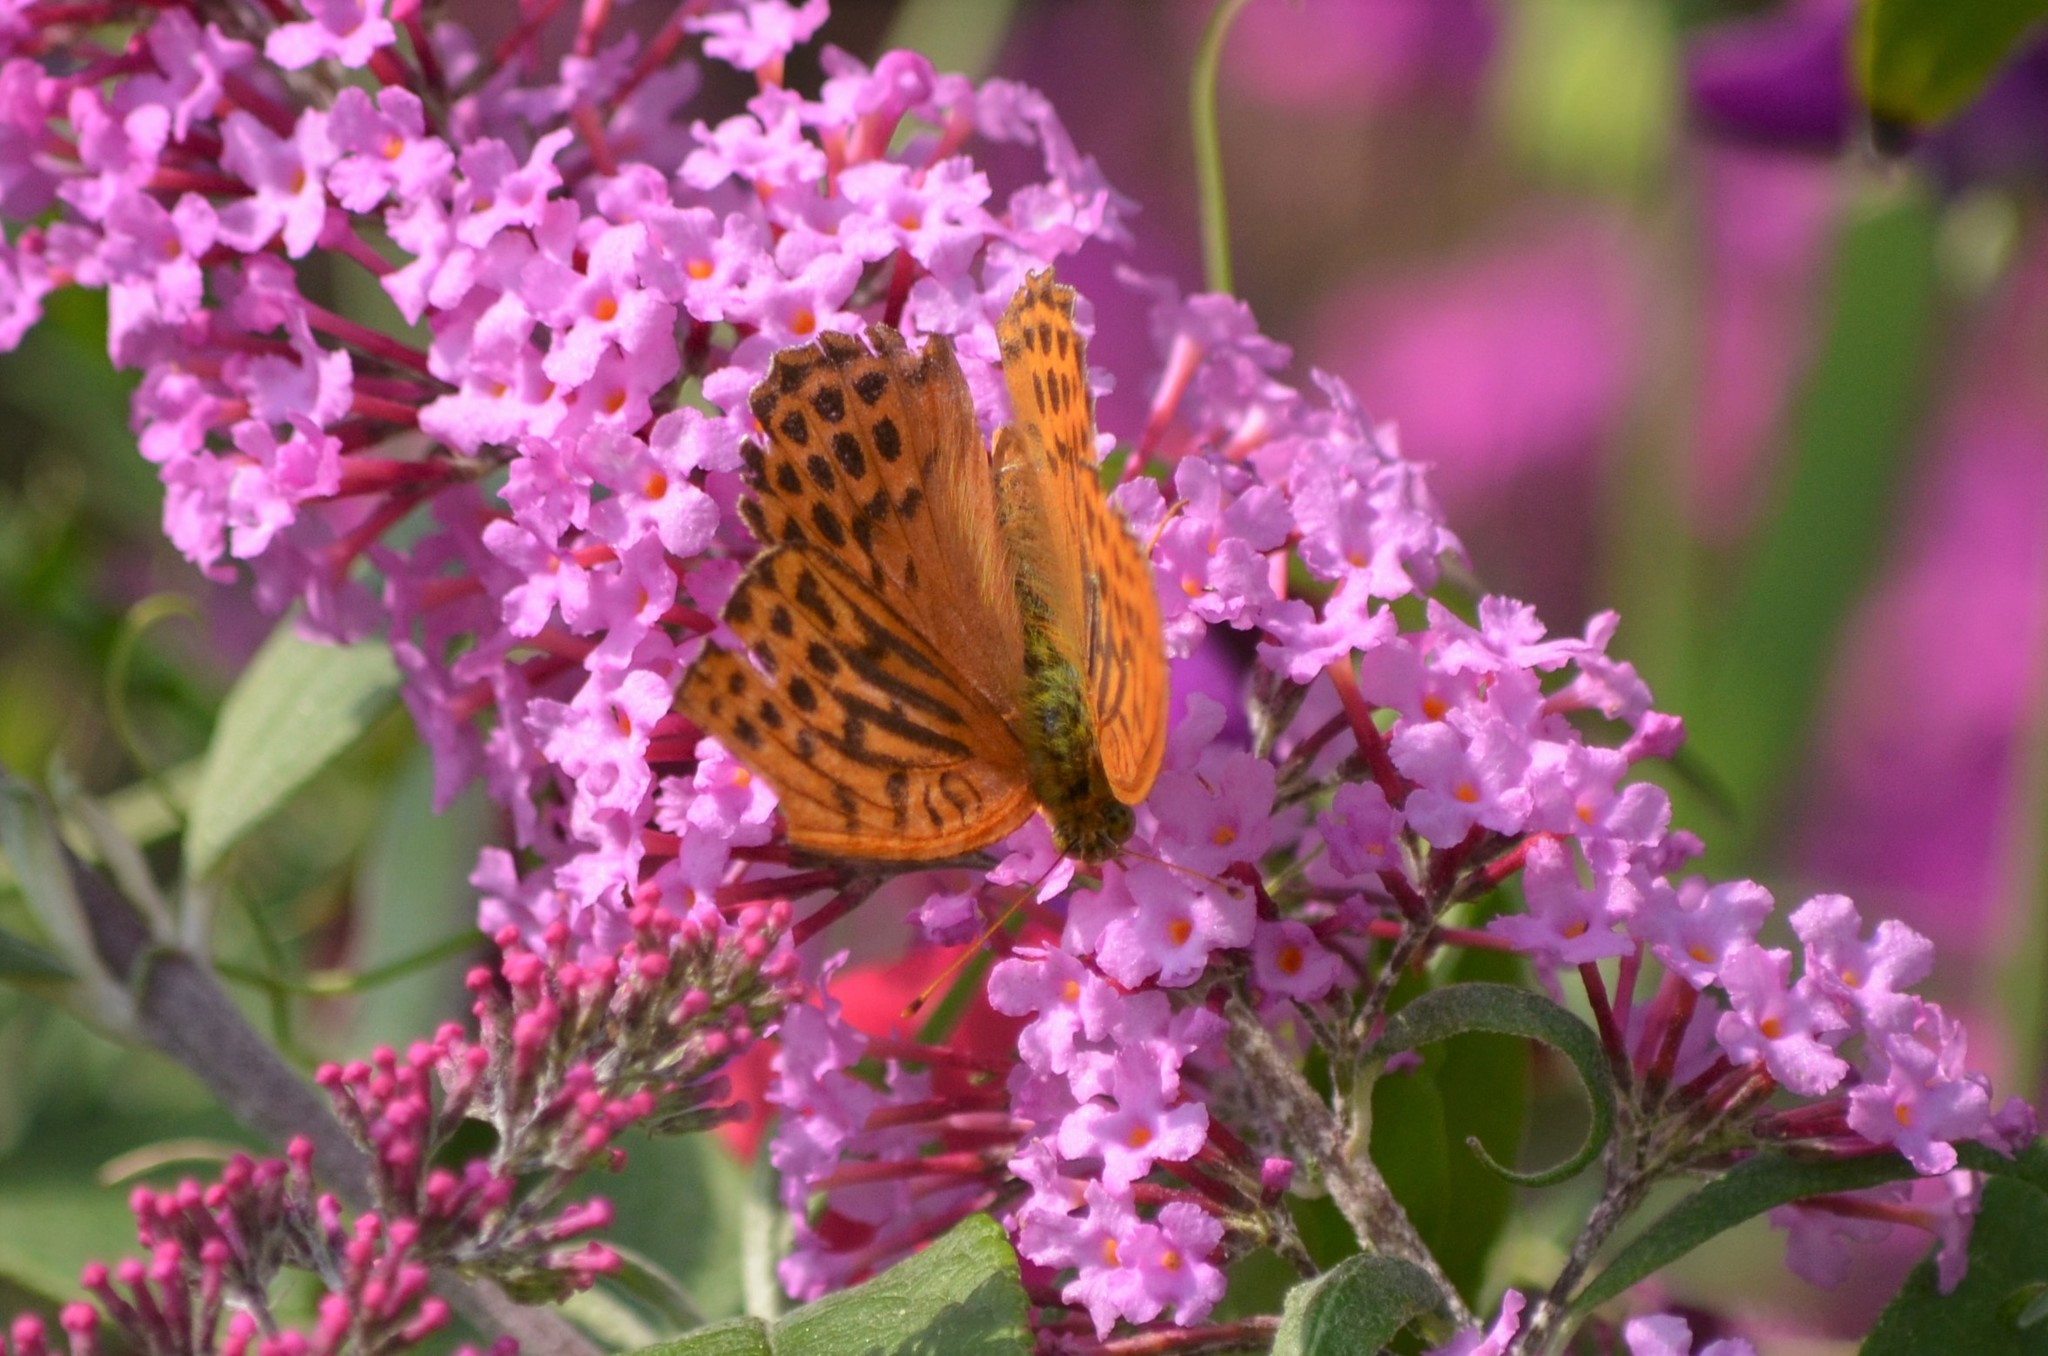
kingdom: Animalia
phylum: Arthropoda
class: Insecta
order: Lepidoptera
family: Nymphalidae
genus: Argynnis
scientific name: Argynnis paphia
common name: Silver-washed fritillary
